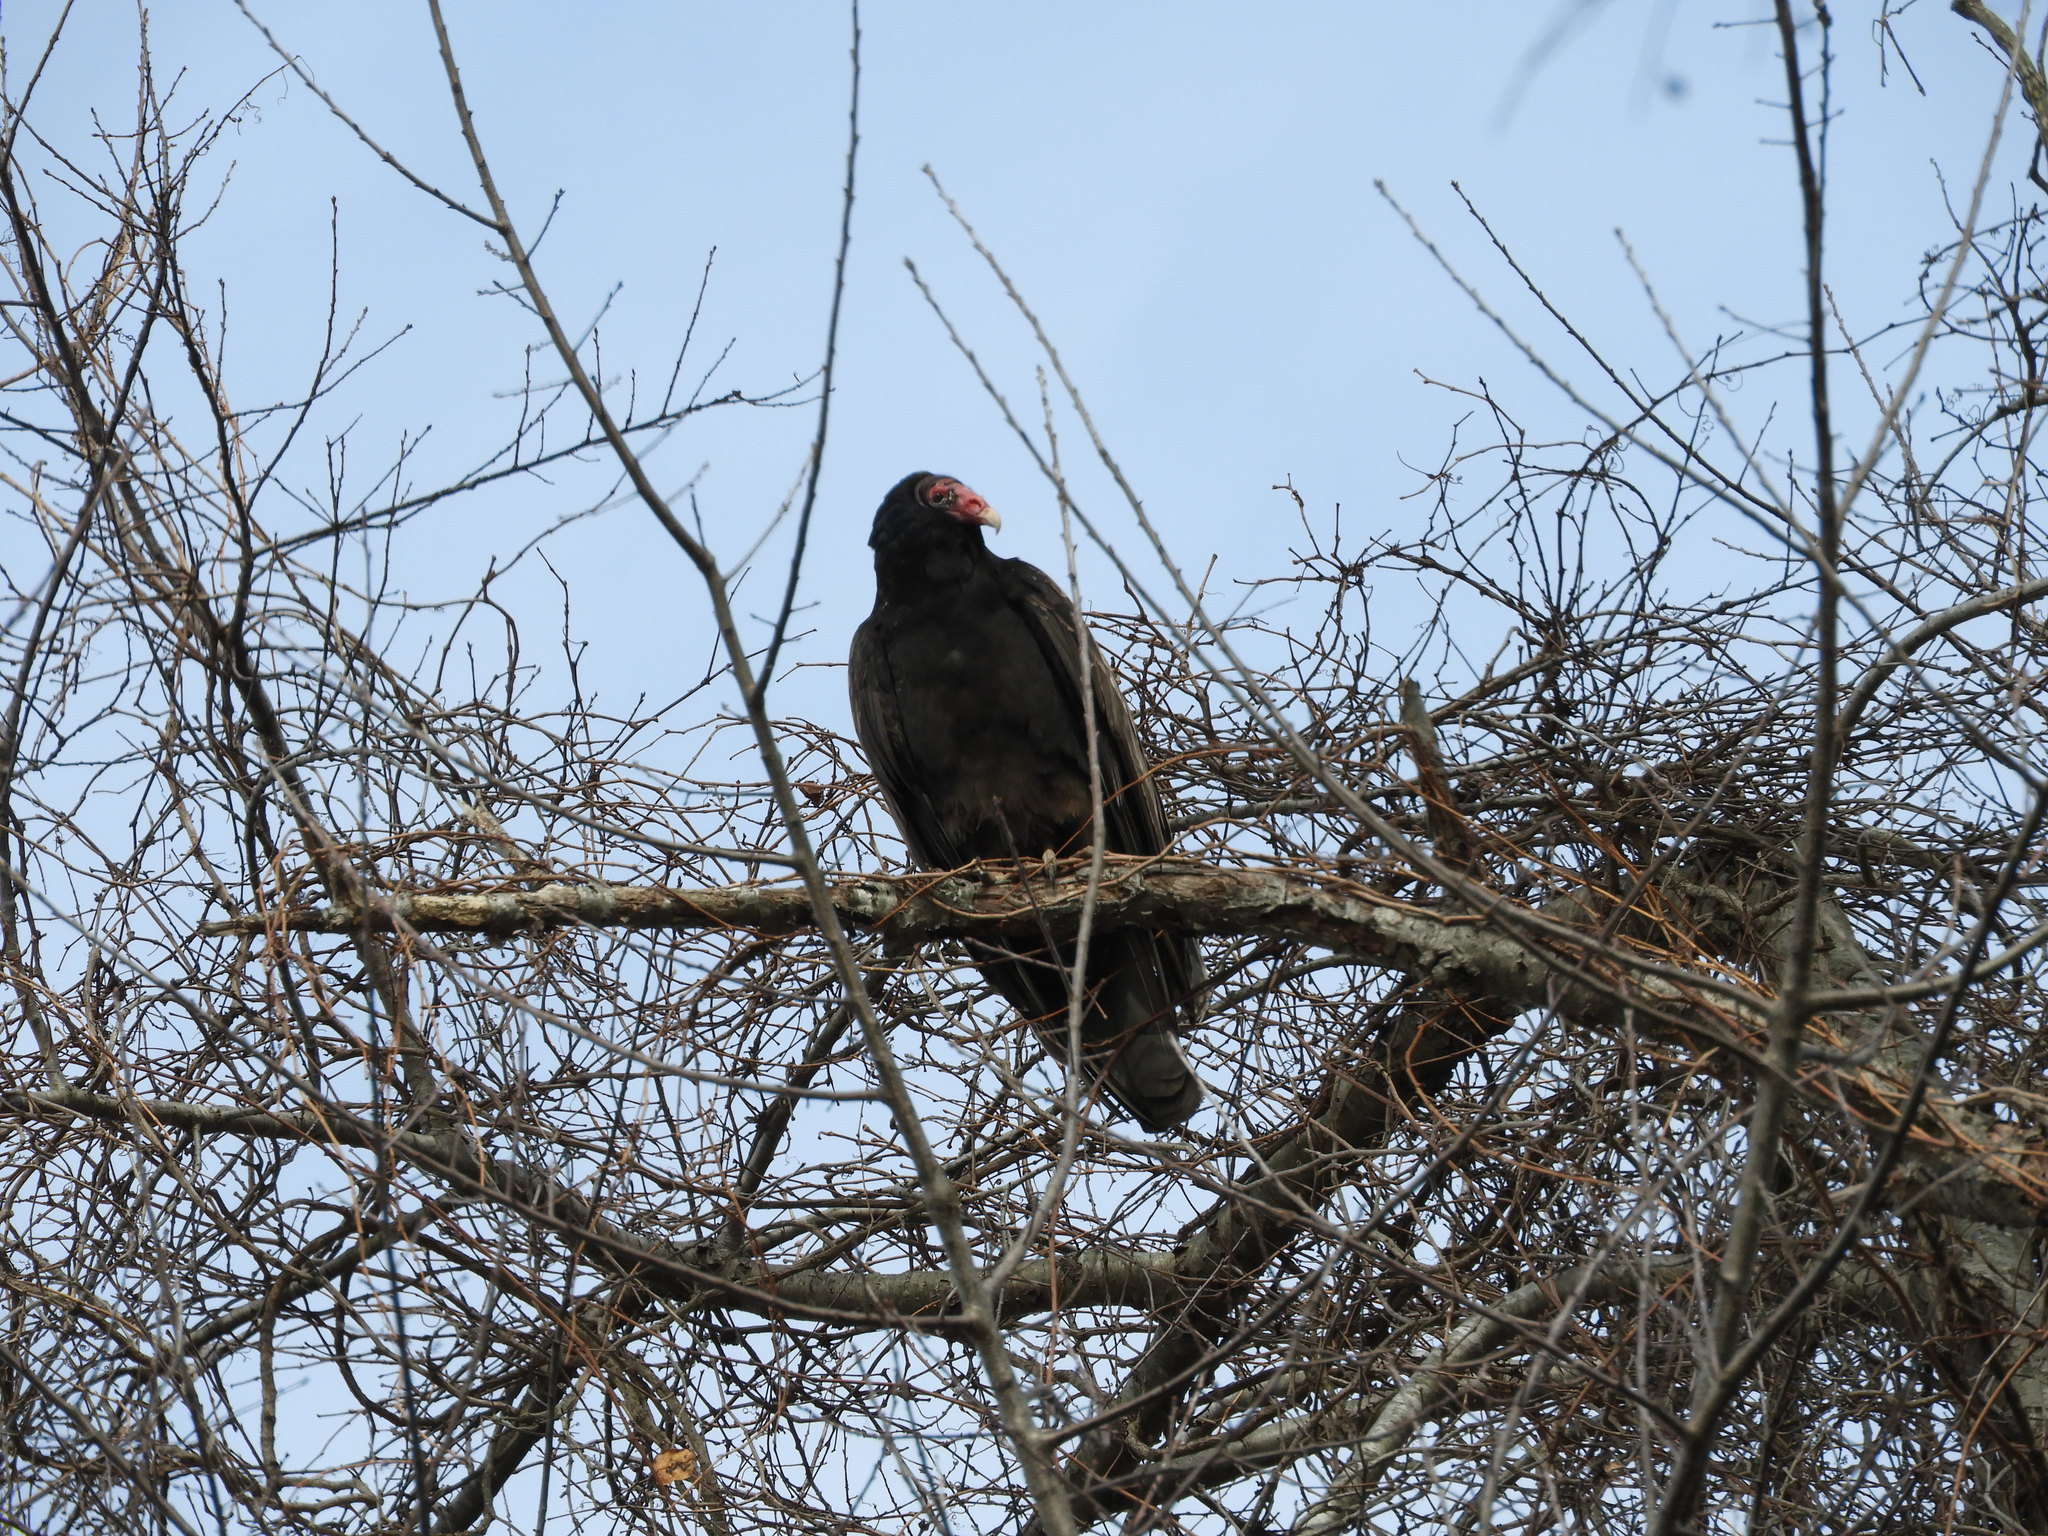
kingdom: Animalia
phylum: Chordata
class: Aves
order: Accipitriformes
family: Cathartidae
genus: Cathartes
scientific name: Cathartes aura
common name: Turkey vulture
